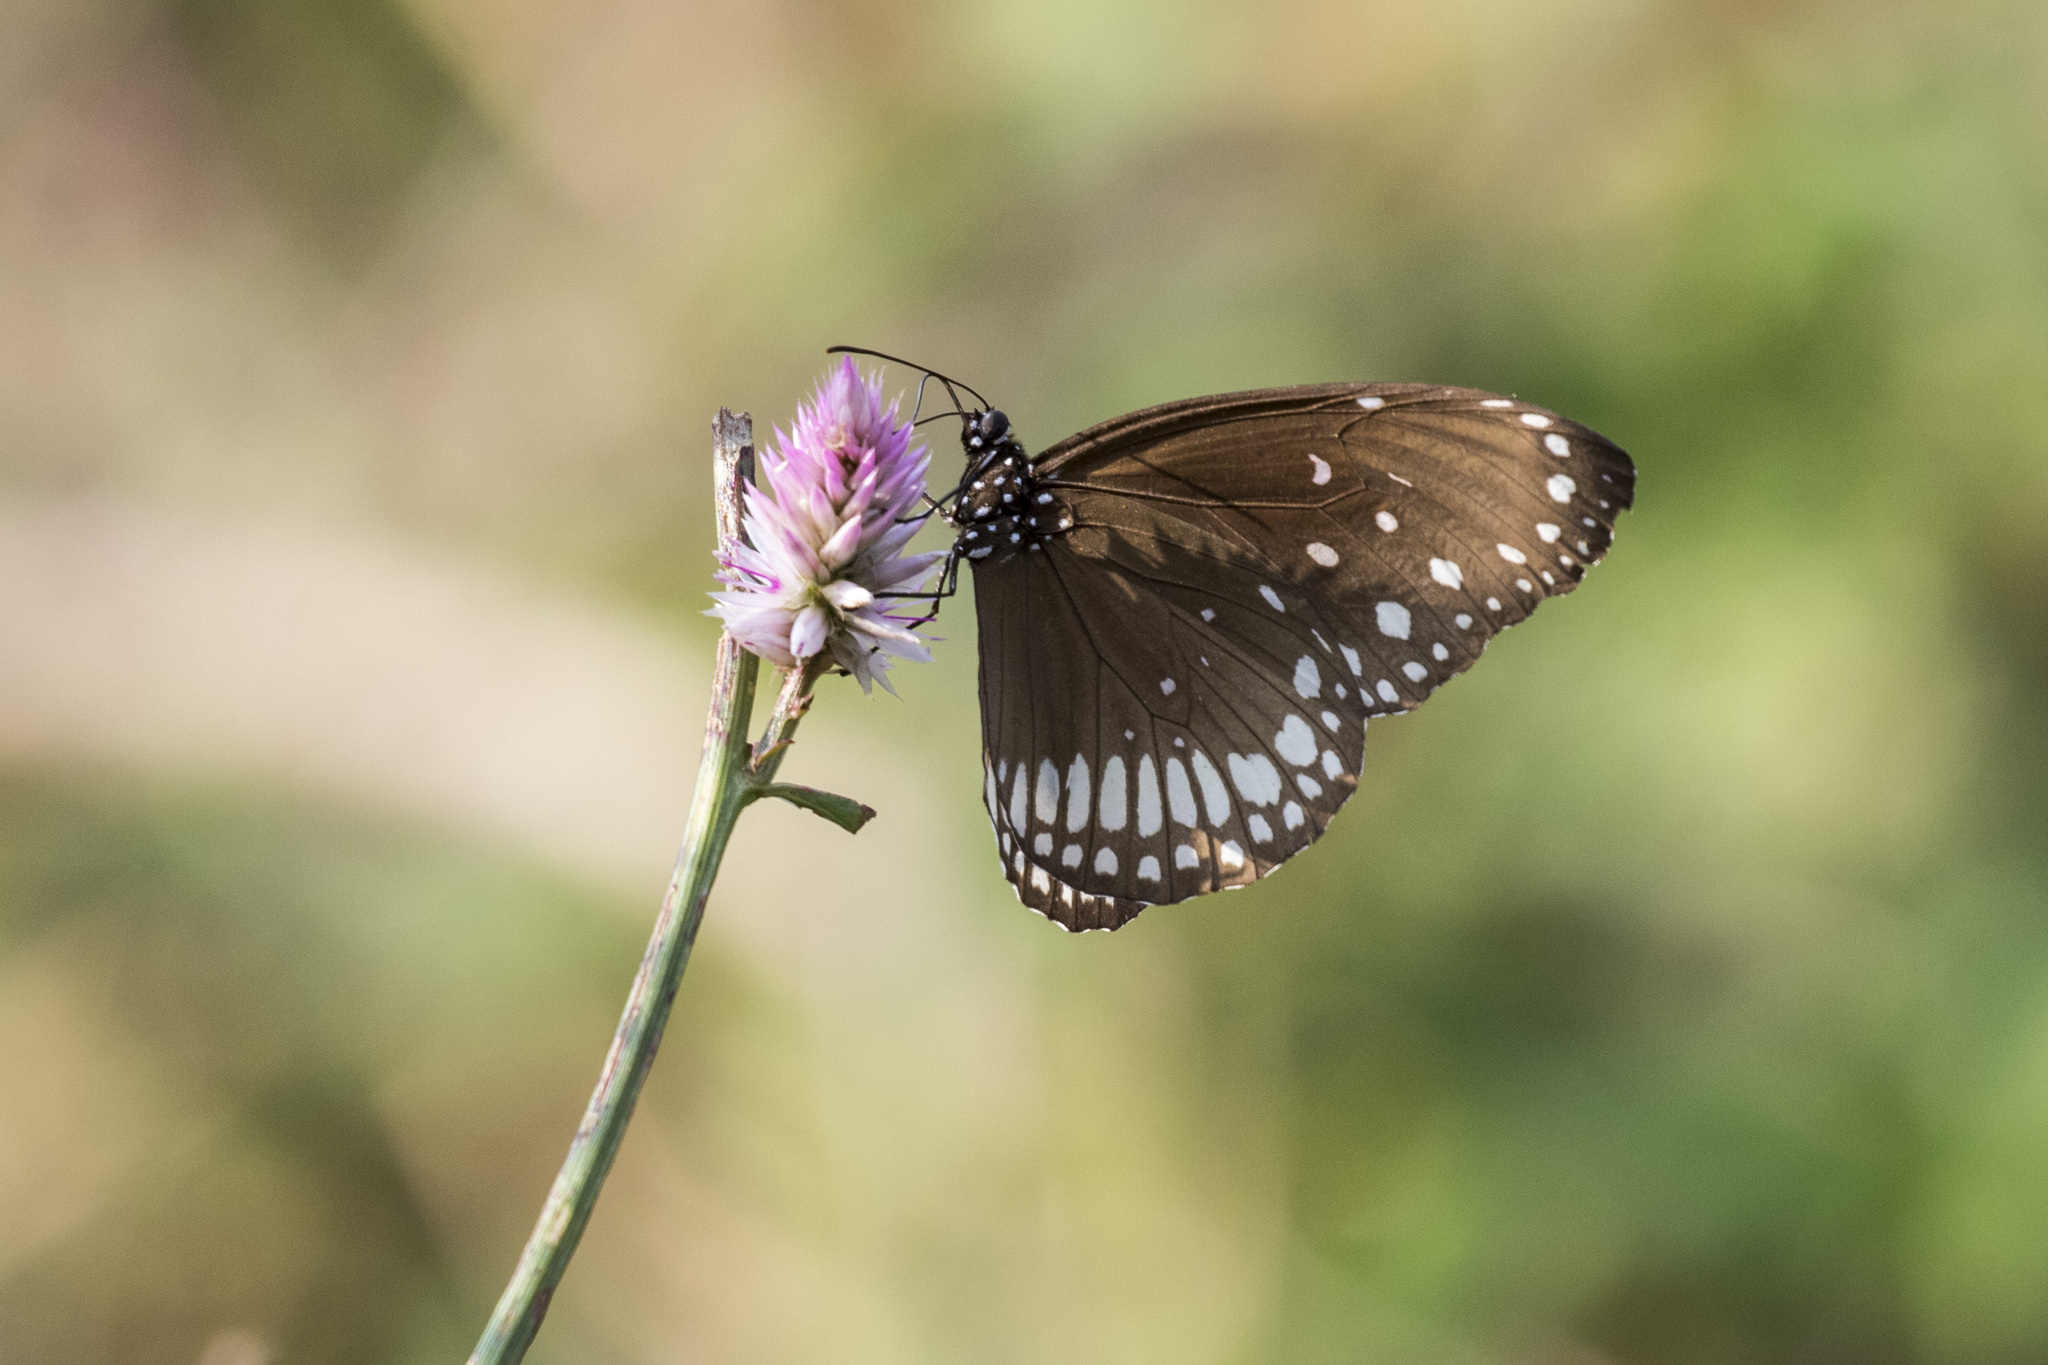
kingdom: Animalia
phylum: Arthropoda
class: Insecta
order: Lepidoptera
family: Nymphalidae
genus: Euploea
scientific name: Euploea core
